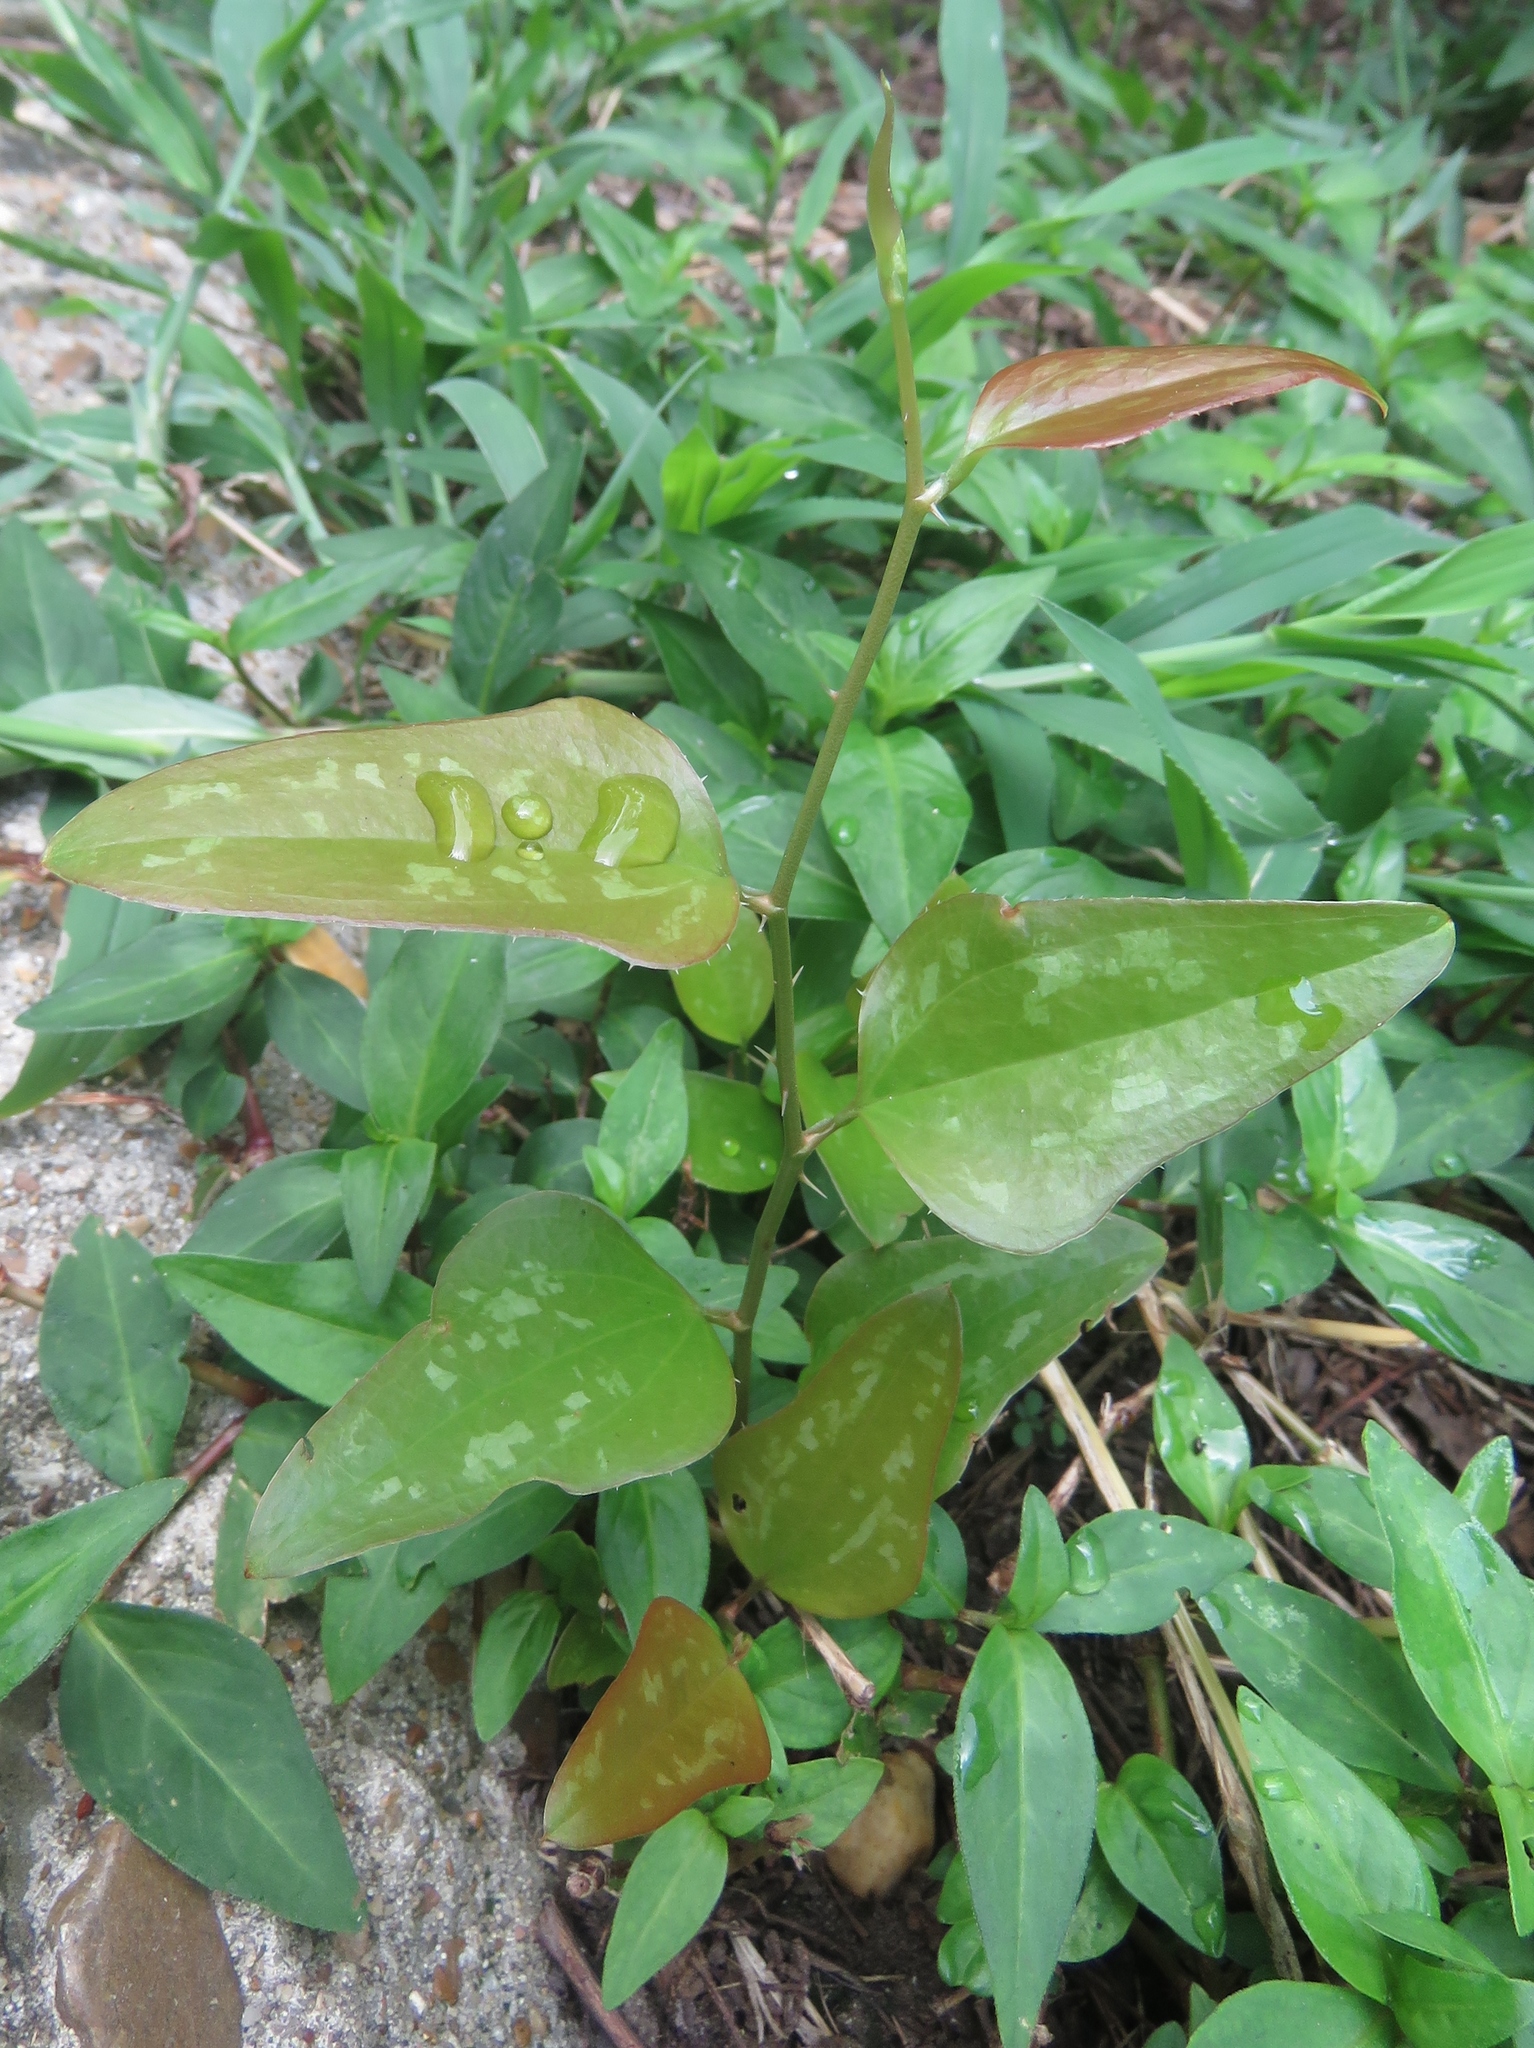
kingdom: Plantae
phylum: Tracheophyta
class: Liliopsida
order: Liliales
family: Smilacaceae
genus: Smilax
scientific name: Smilax bona-nox
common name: Catbrier
